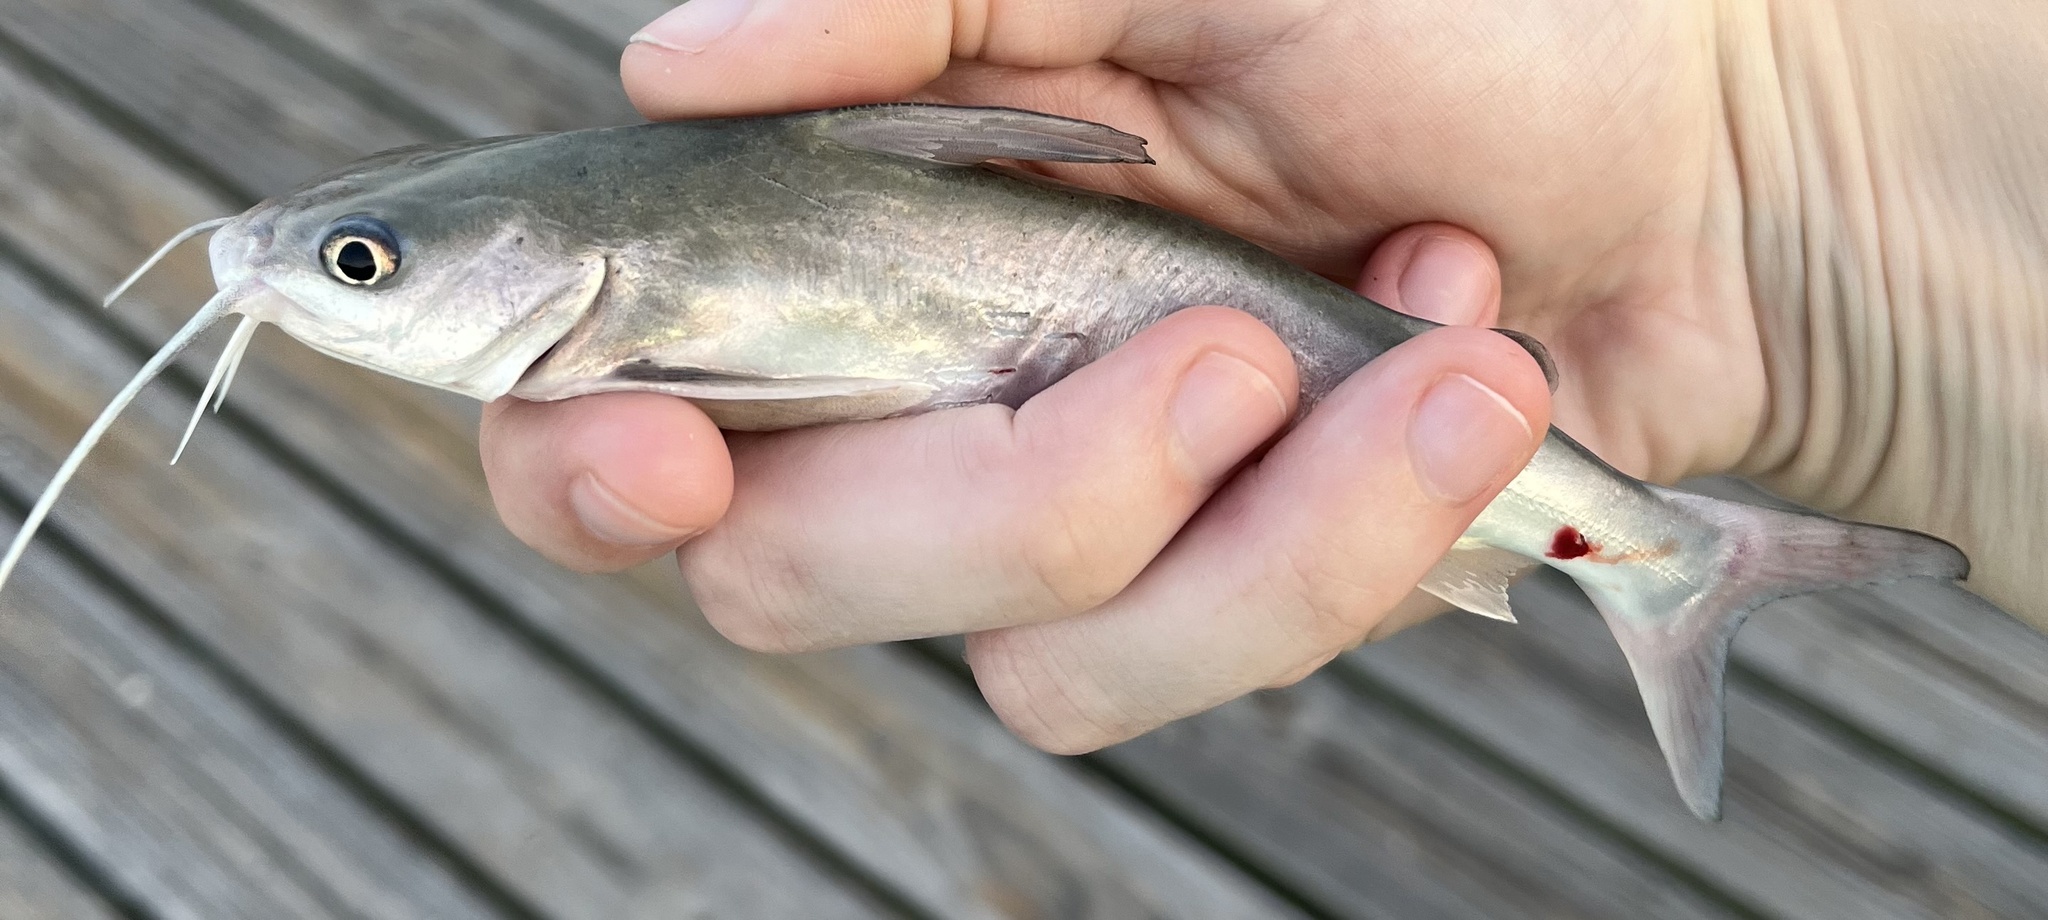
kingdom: Animalia
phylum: Chordata
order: Siluriformes
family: Ariidae
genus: Ariopsis
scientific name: Ariopsis felis
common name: Hardhead catfish
